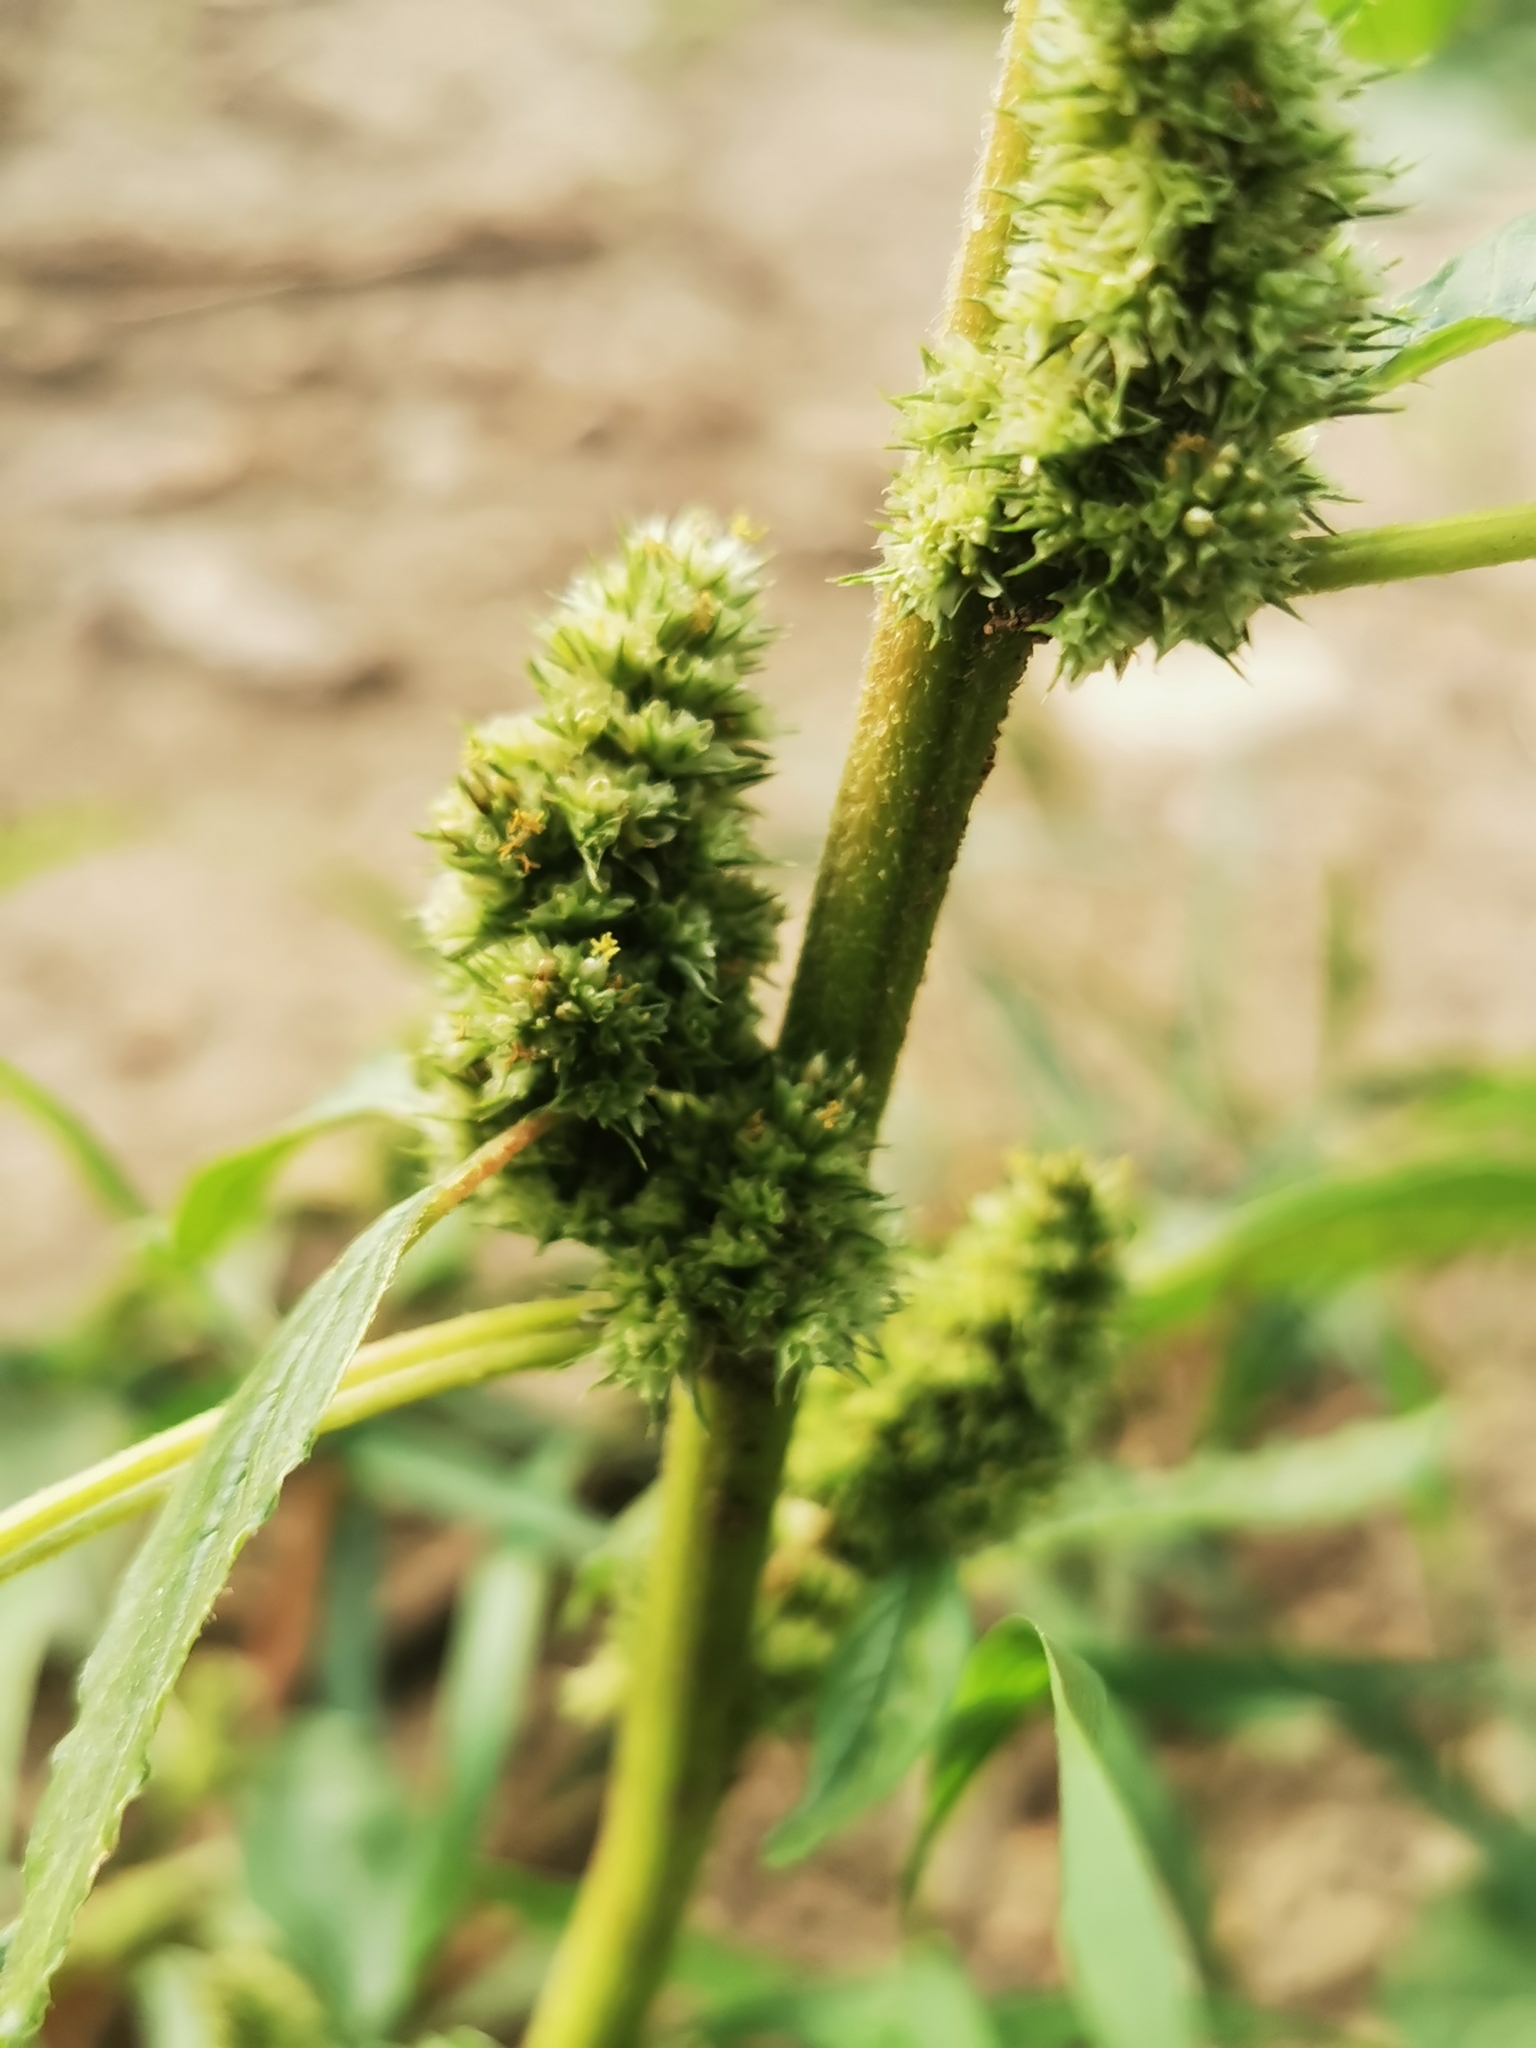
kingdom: Plantae
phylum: Tracheophyta
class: Magnoliopsida
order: Caryophyllales
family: Amaranthaceae
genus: Amaranthus
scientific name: Amaranthus retroflexus
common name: Redroot amaranth
